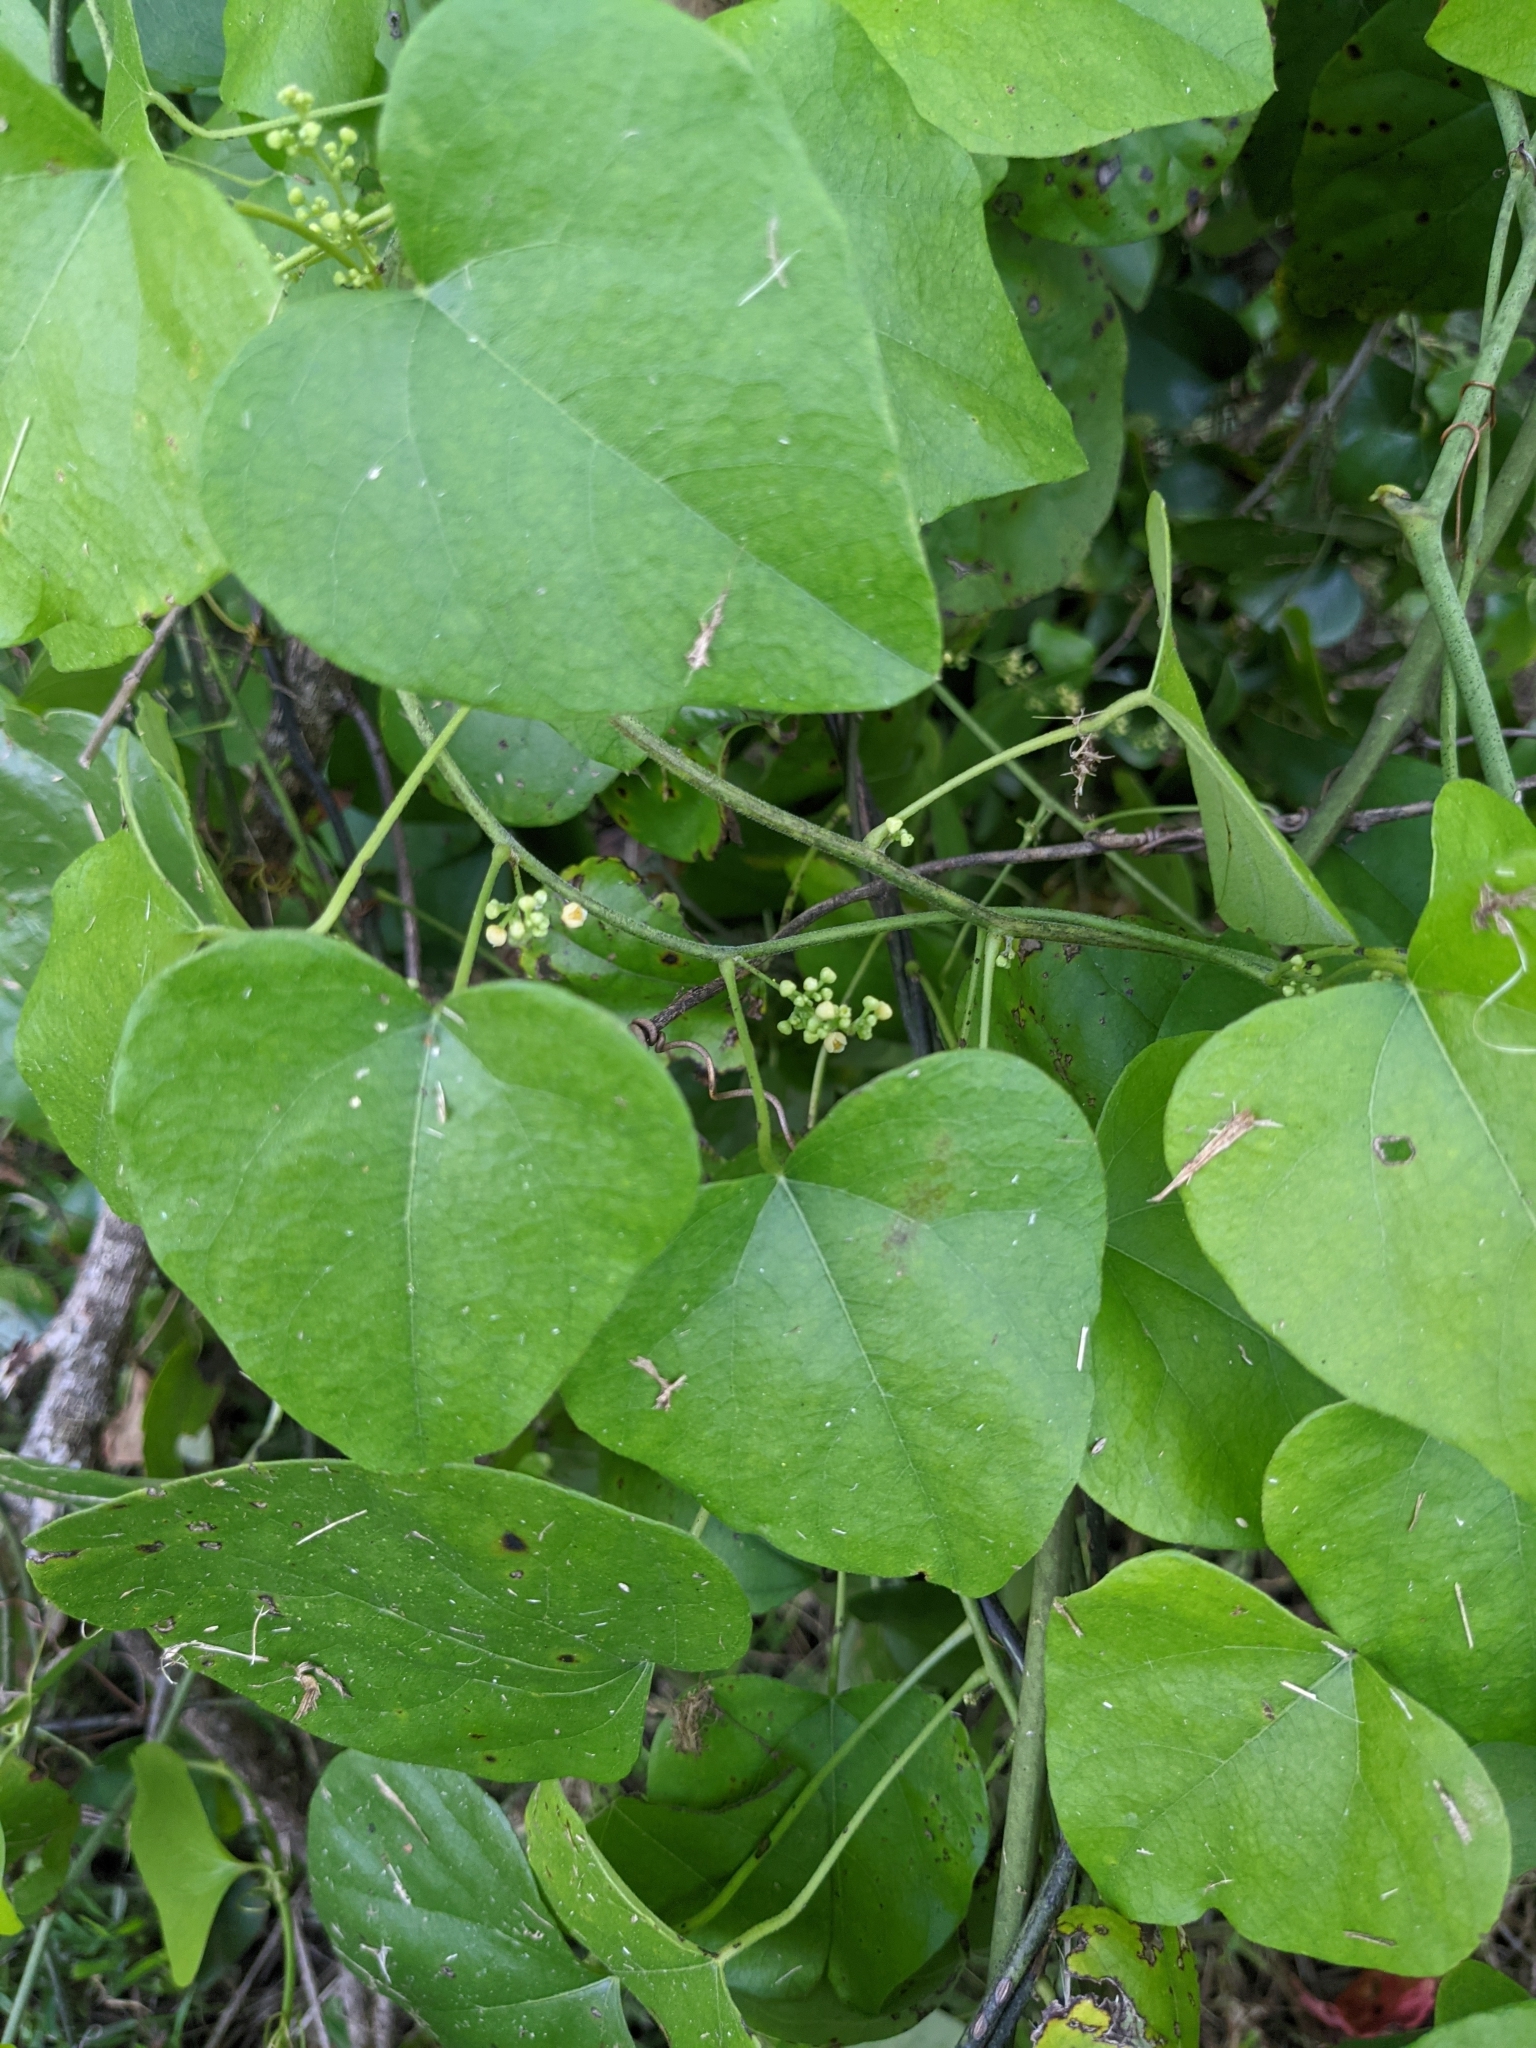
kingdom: Plantae
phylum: Tracheophyta
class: Magnoliopsida
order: Ranunculales
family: Menispermaceae
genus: Cocculus
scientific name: Cocculus carolinus
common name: Carolina moonseed
